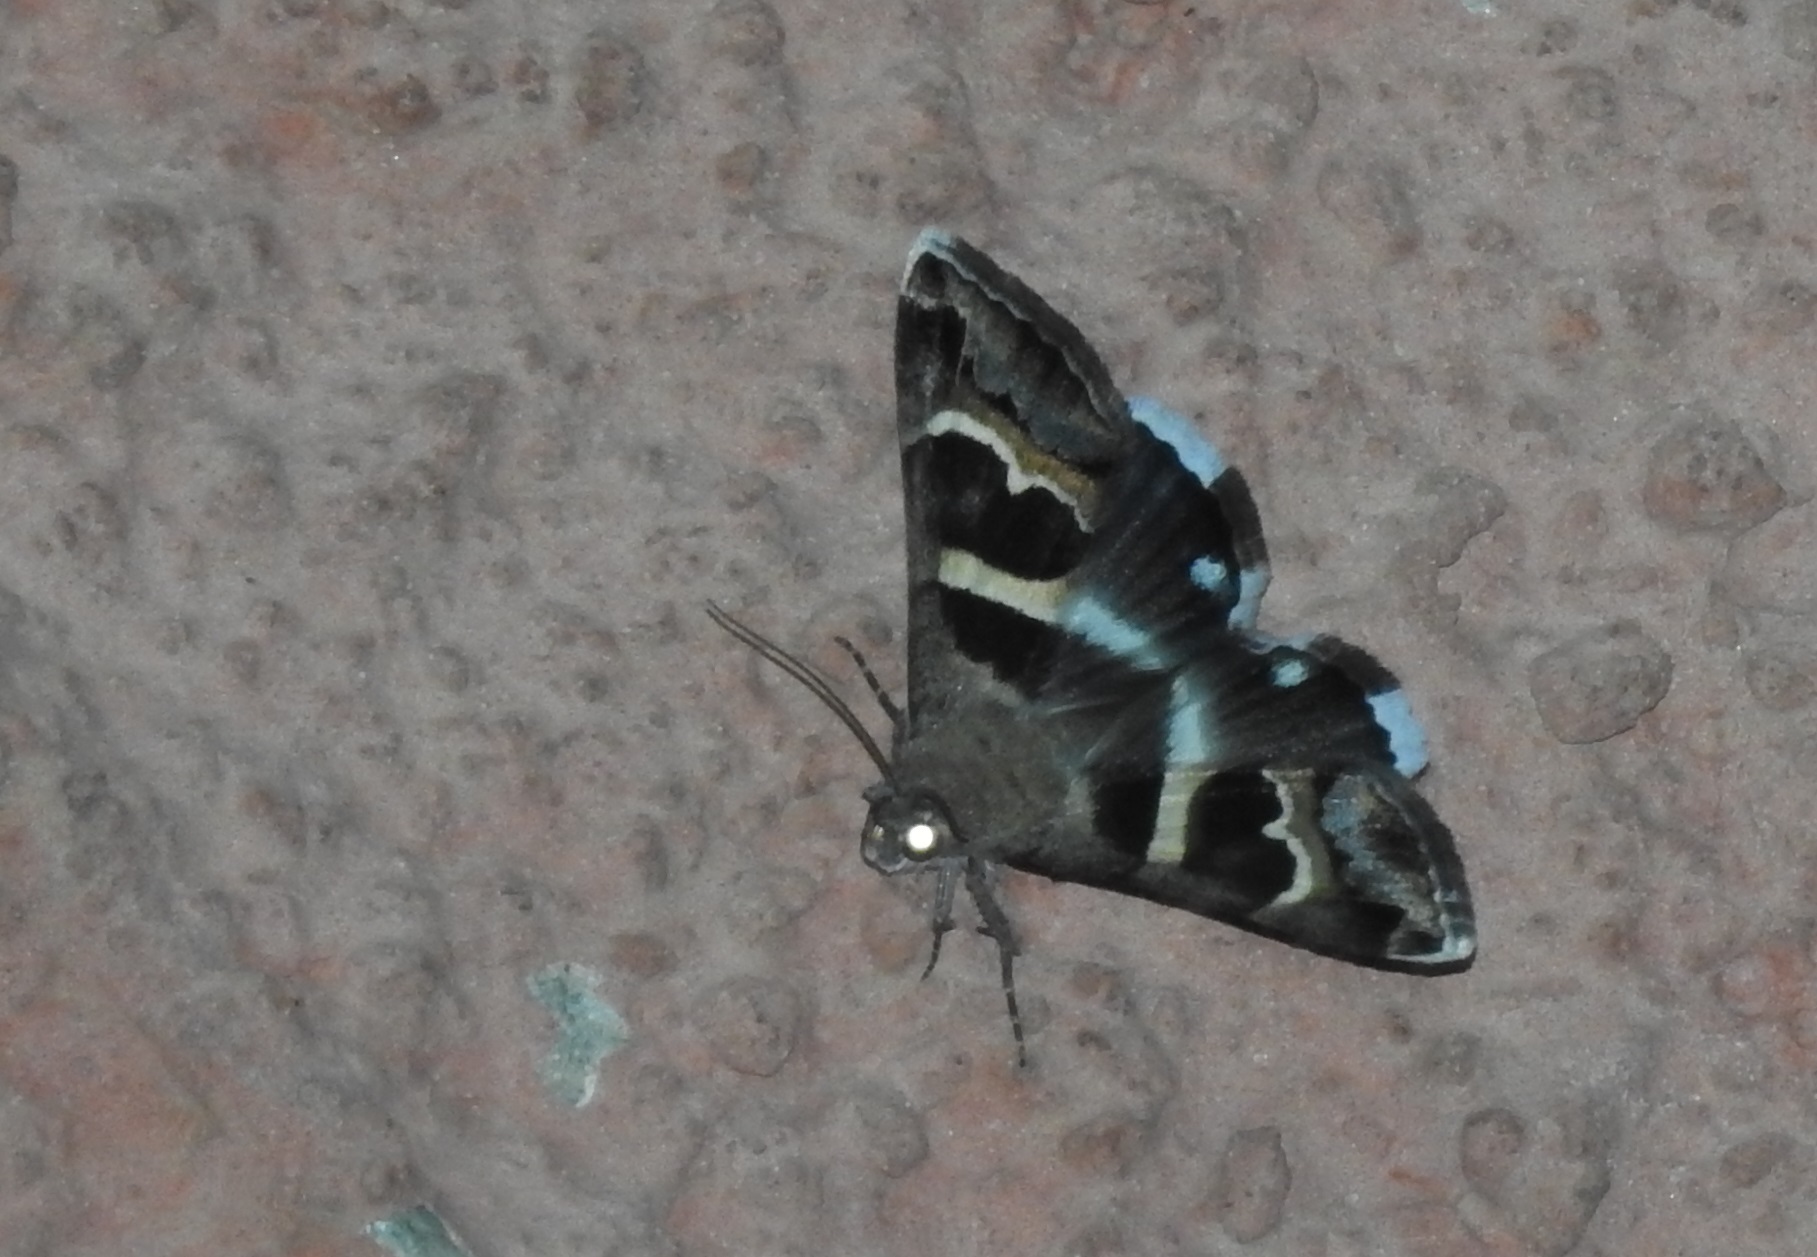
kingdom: Animalia
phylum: Arthropoda
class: Insecta
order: Lepidoptera
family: Erebidae
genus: Grammodes
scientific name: Grammodes stolida
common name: Geometrician
